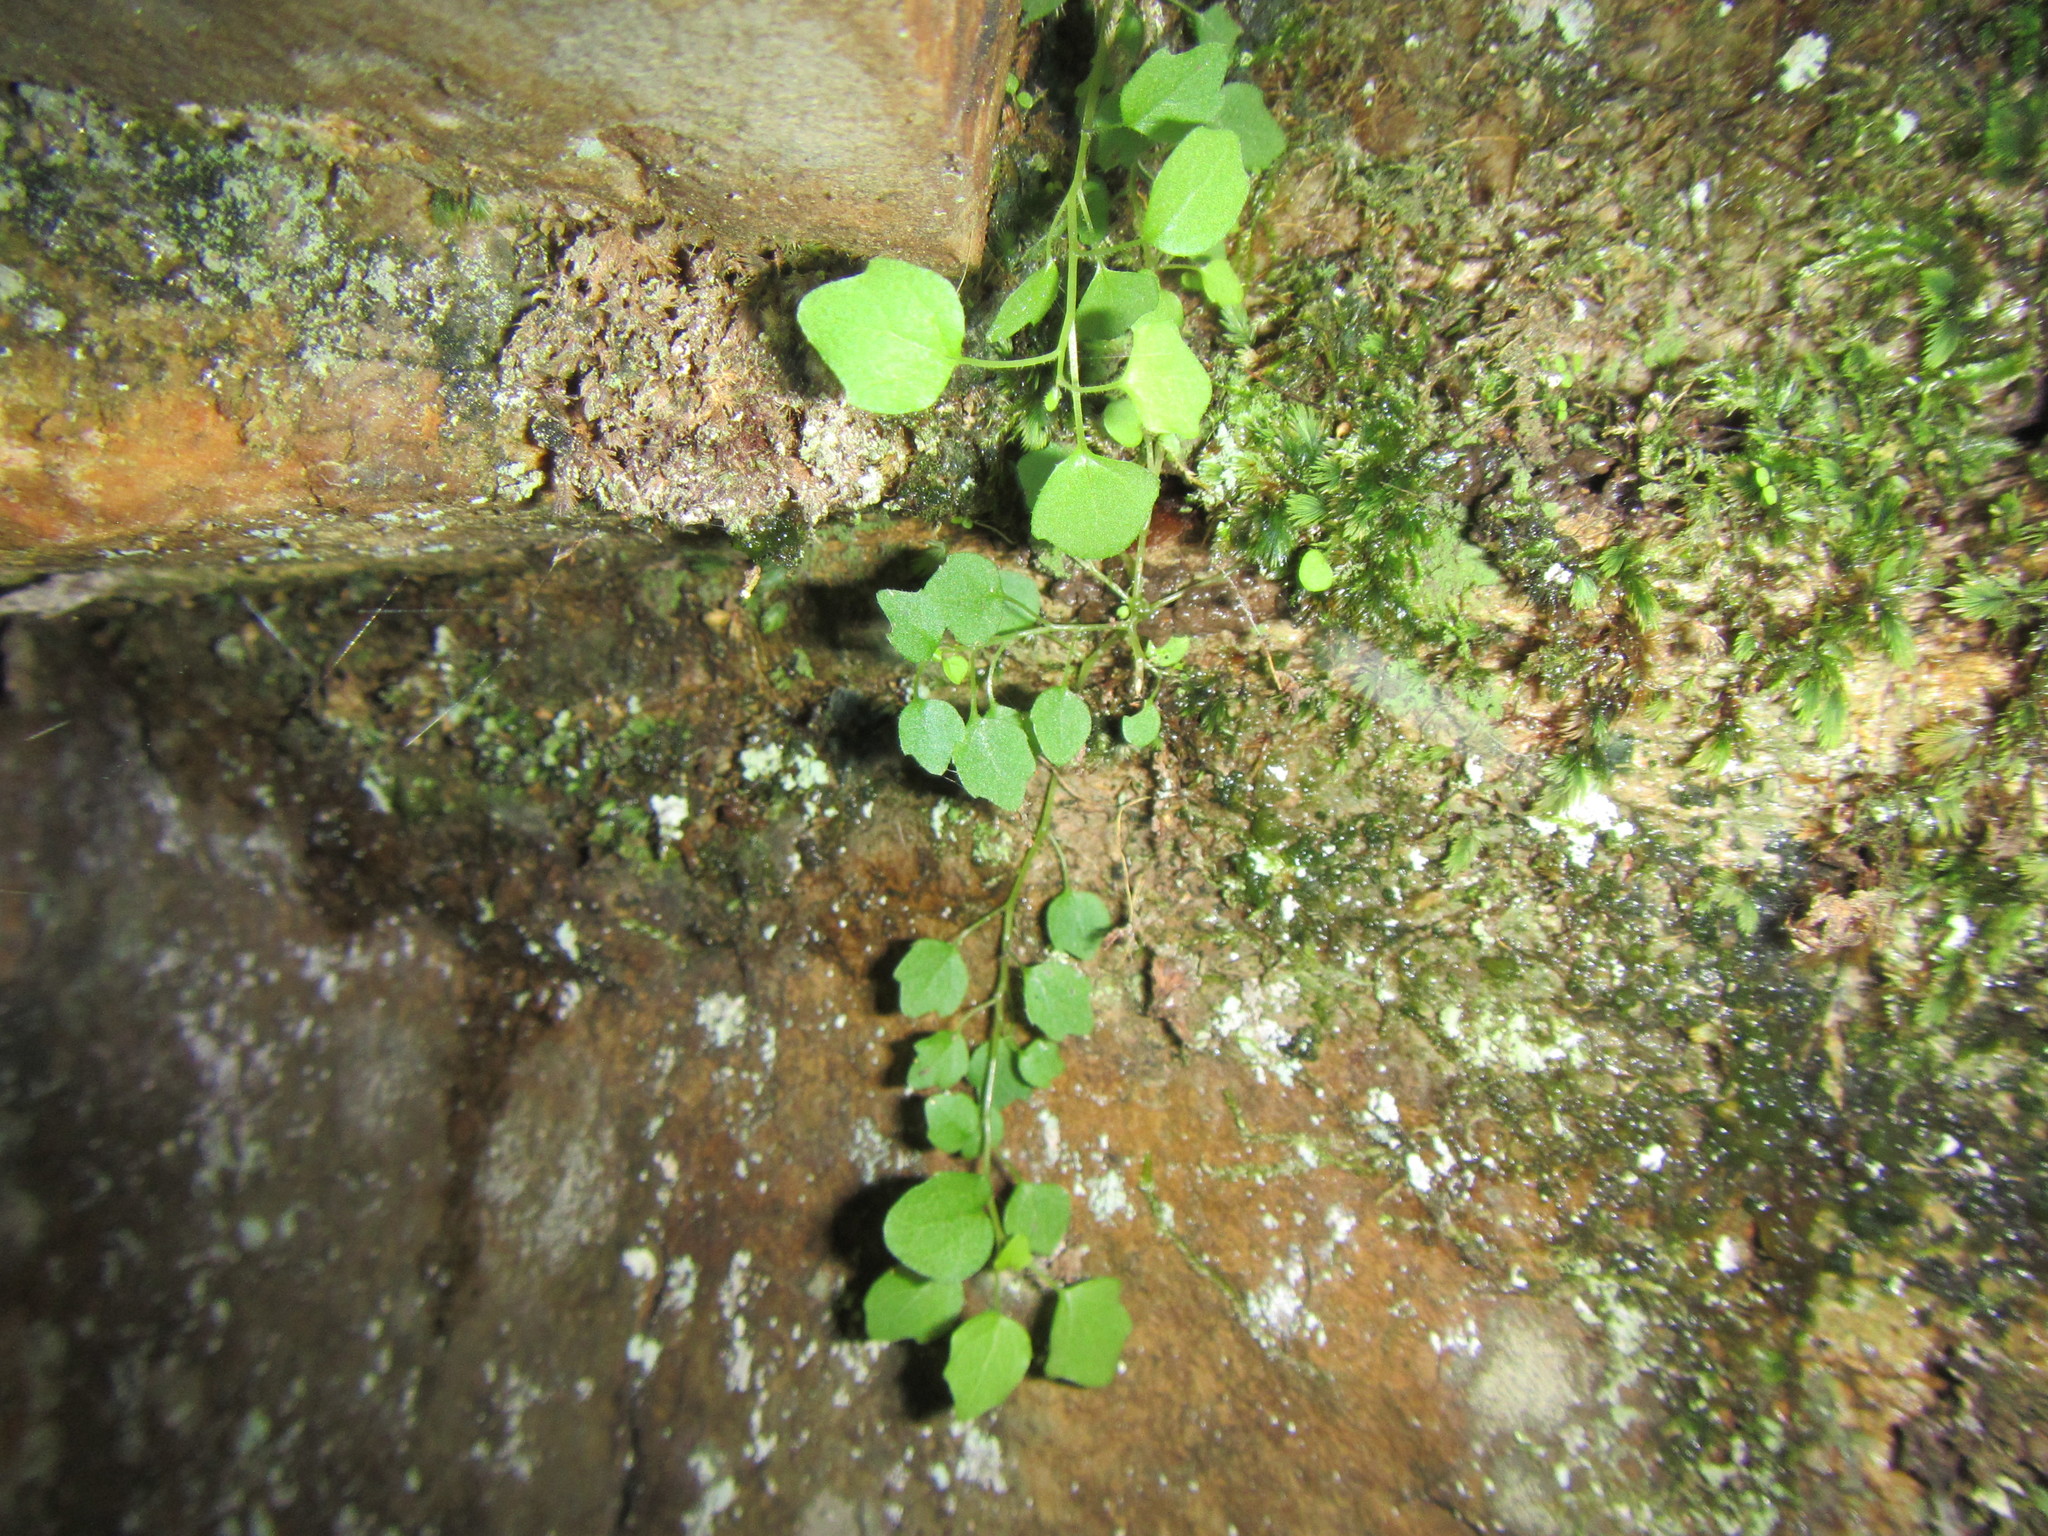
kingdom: Plantae
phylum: Tracheophyta
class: Magnoliopsida
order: Asterales
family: Campanulaceae
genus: Wimmerella
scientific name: Wimmerella pygmaea
